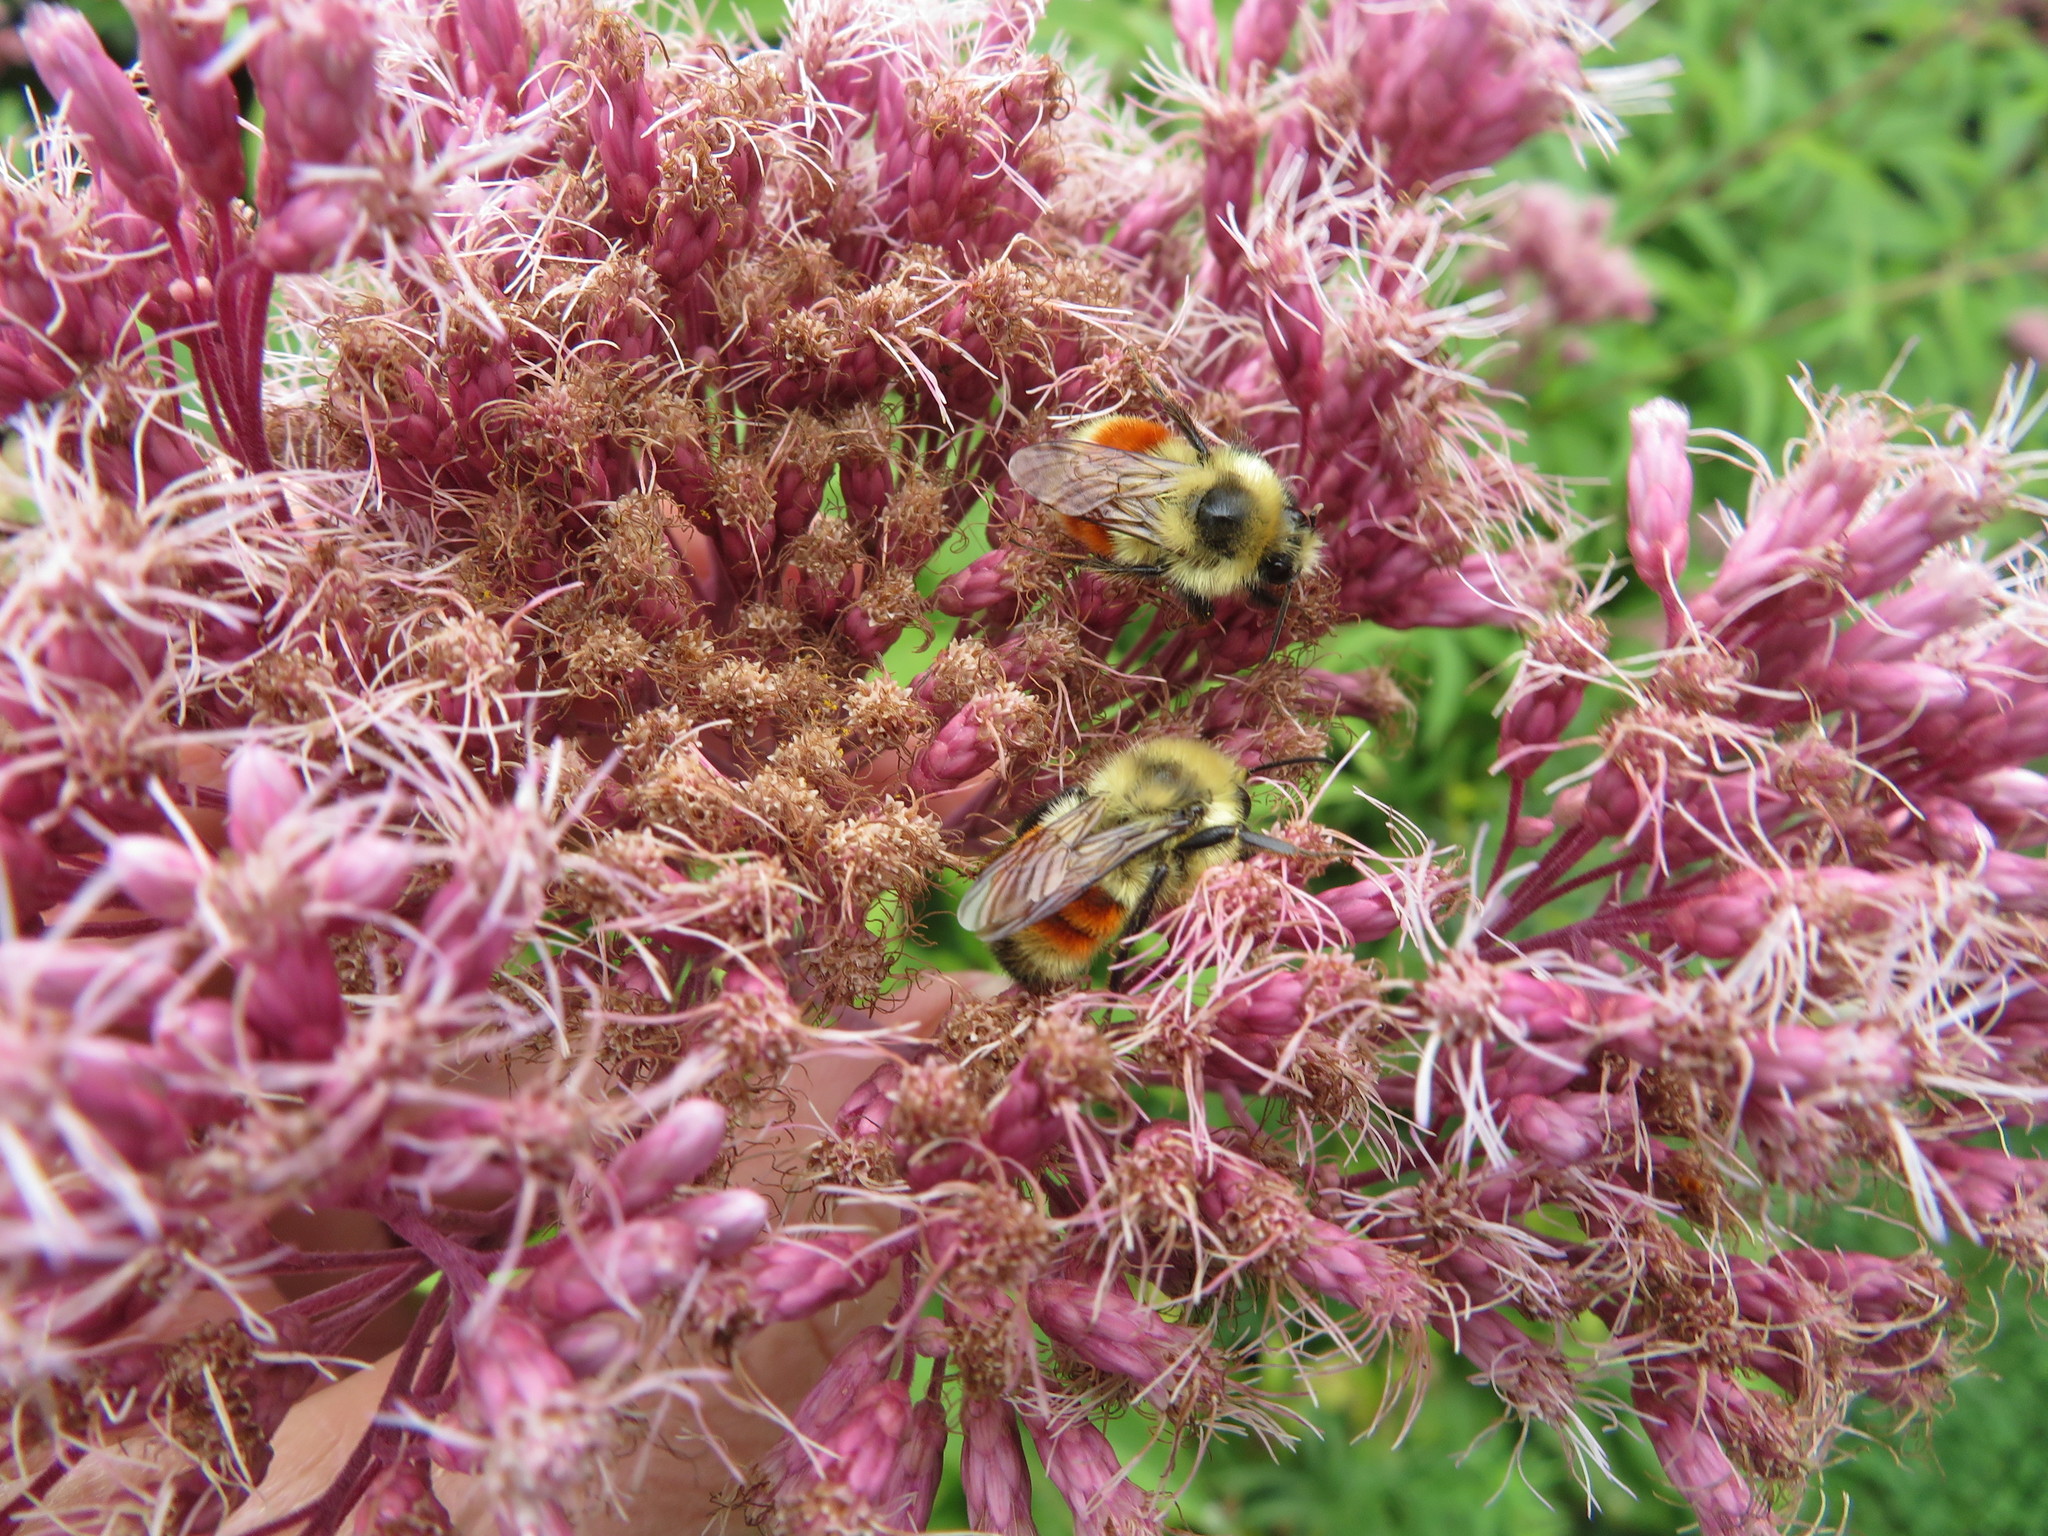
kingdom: Animalia
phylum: Arthropoda
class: Insecta
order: Hymenoptera
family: Apidae
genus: Bombus
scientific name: Bombus huntii
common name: Hunt bumble bee
